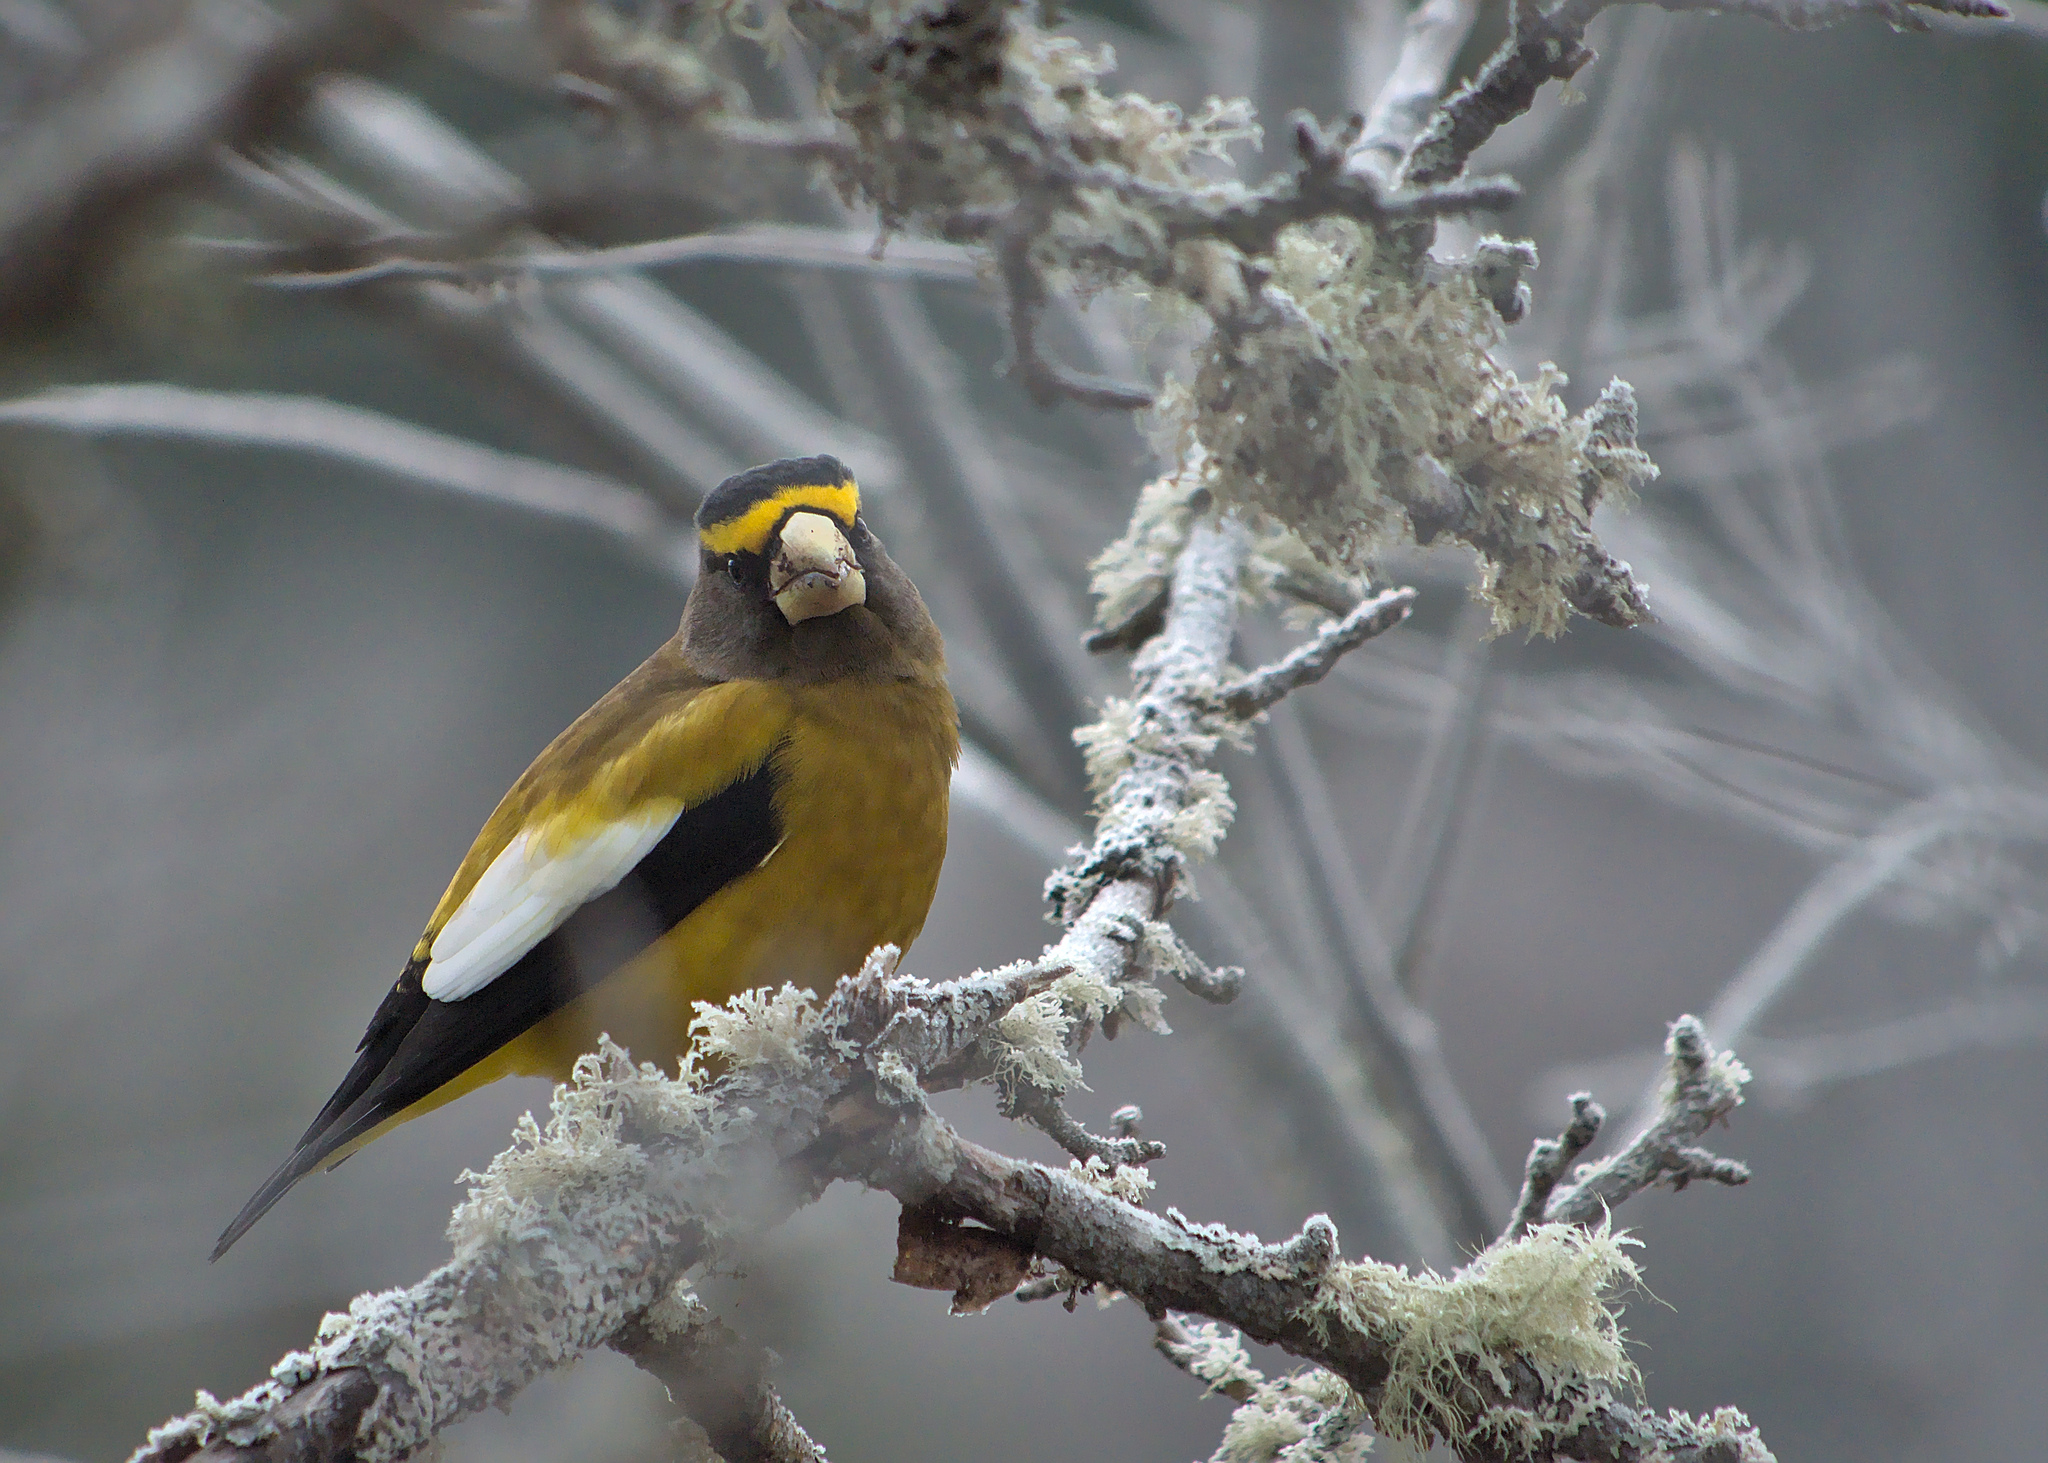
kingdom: Animalia
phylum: Chordata
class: Aves
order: Passeriformes
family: Fringillidae
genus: Hesperiphona
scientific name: Hesperiphona vespertina
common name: Evening grosbeak
